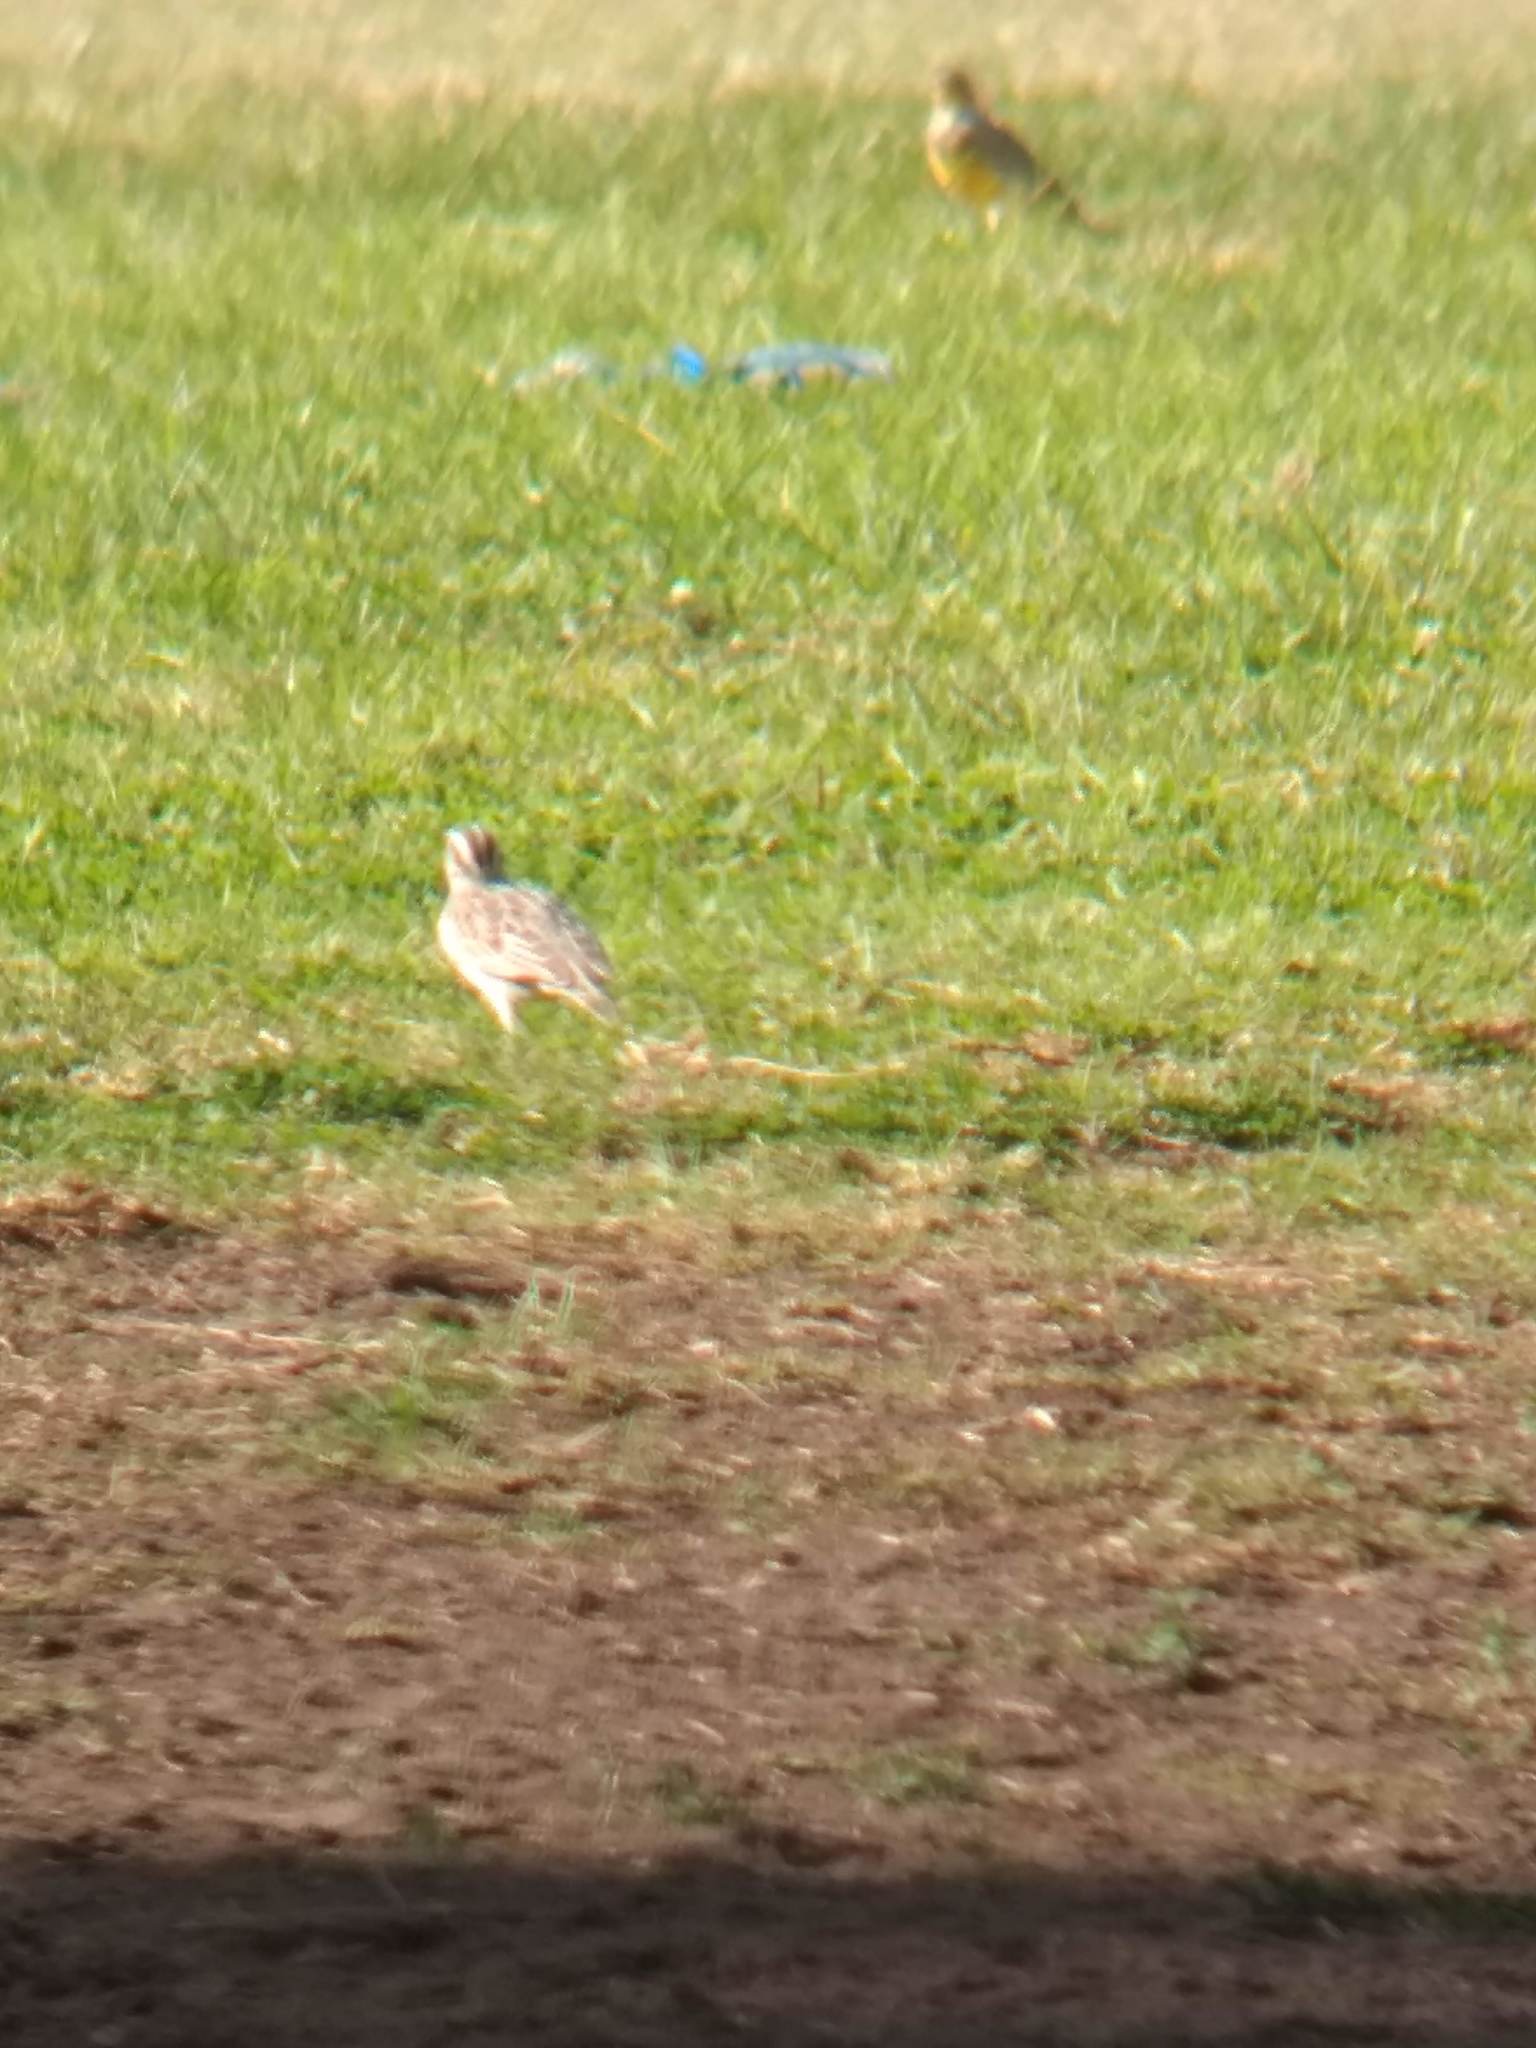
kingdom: Animalia
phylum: Chordata
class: Aves
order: Passeriformes
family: Icteridae
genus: Sturnella
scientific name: Sturnella neglecta
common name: Western meadowlark
